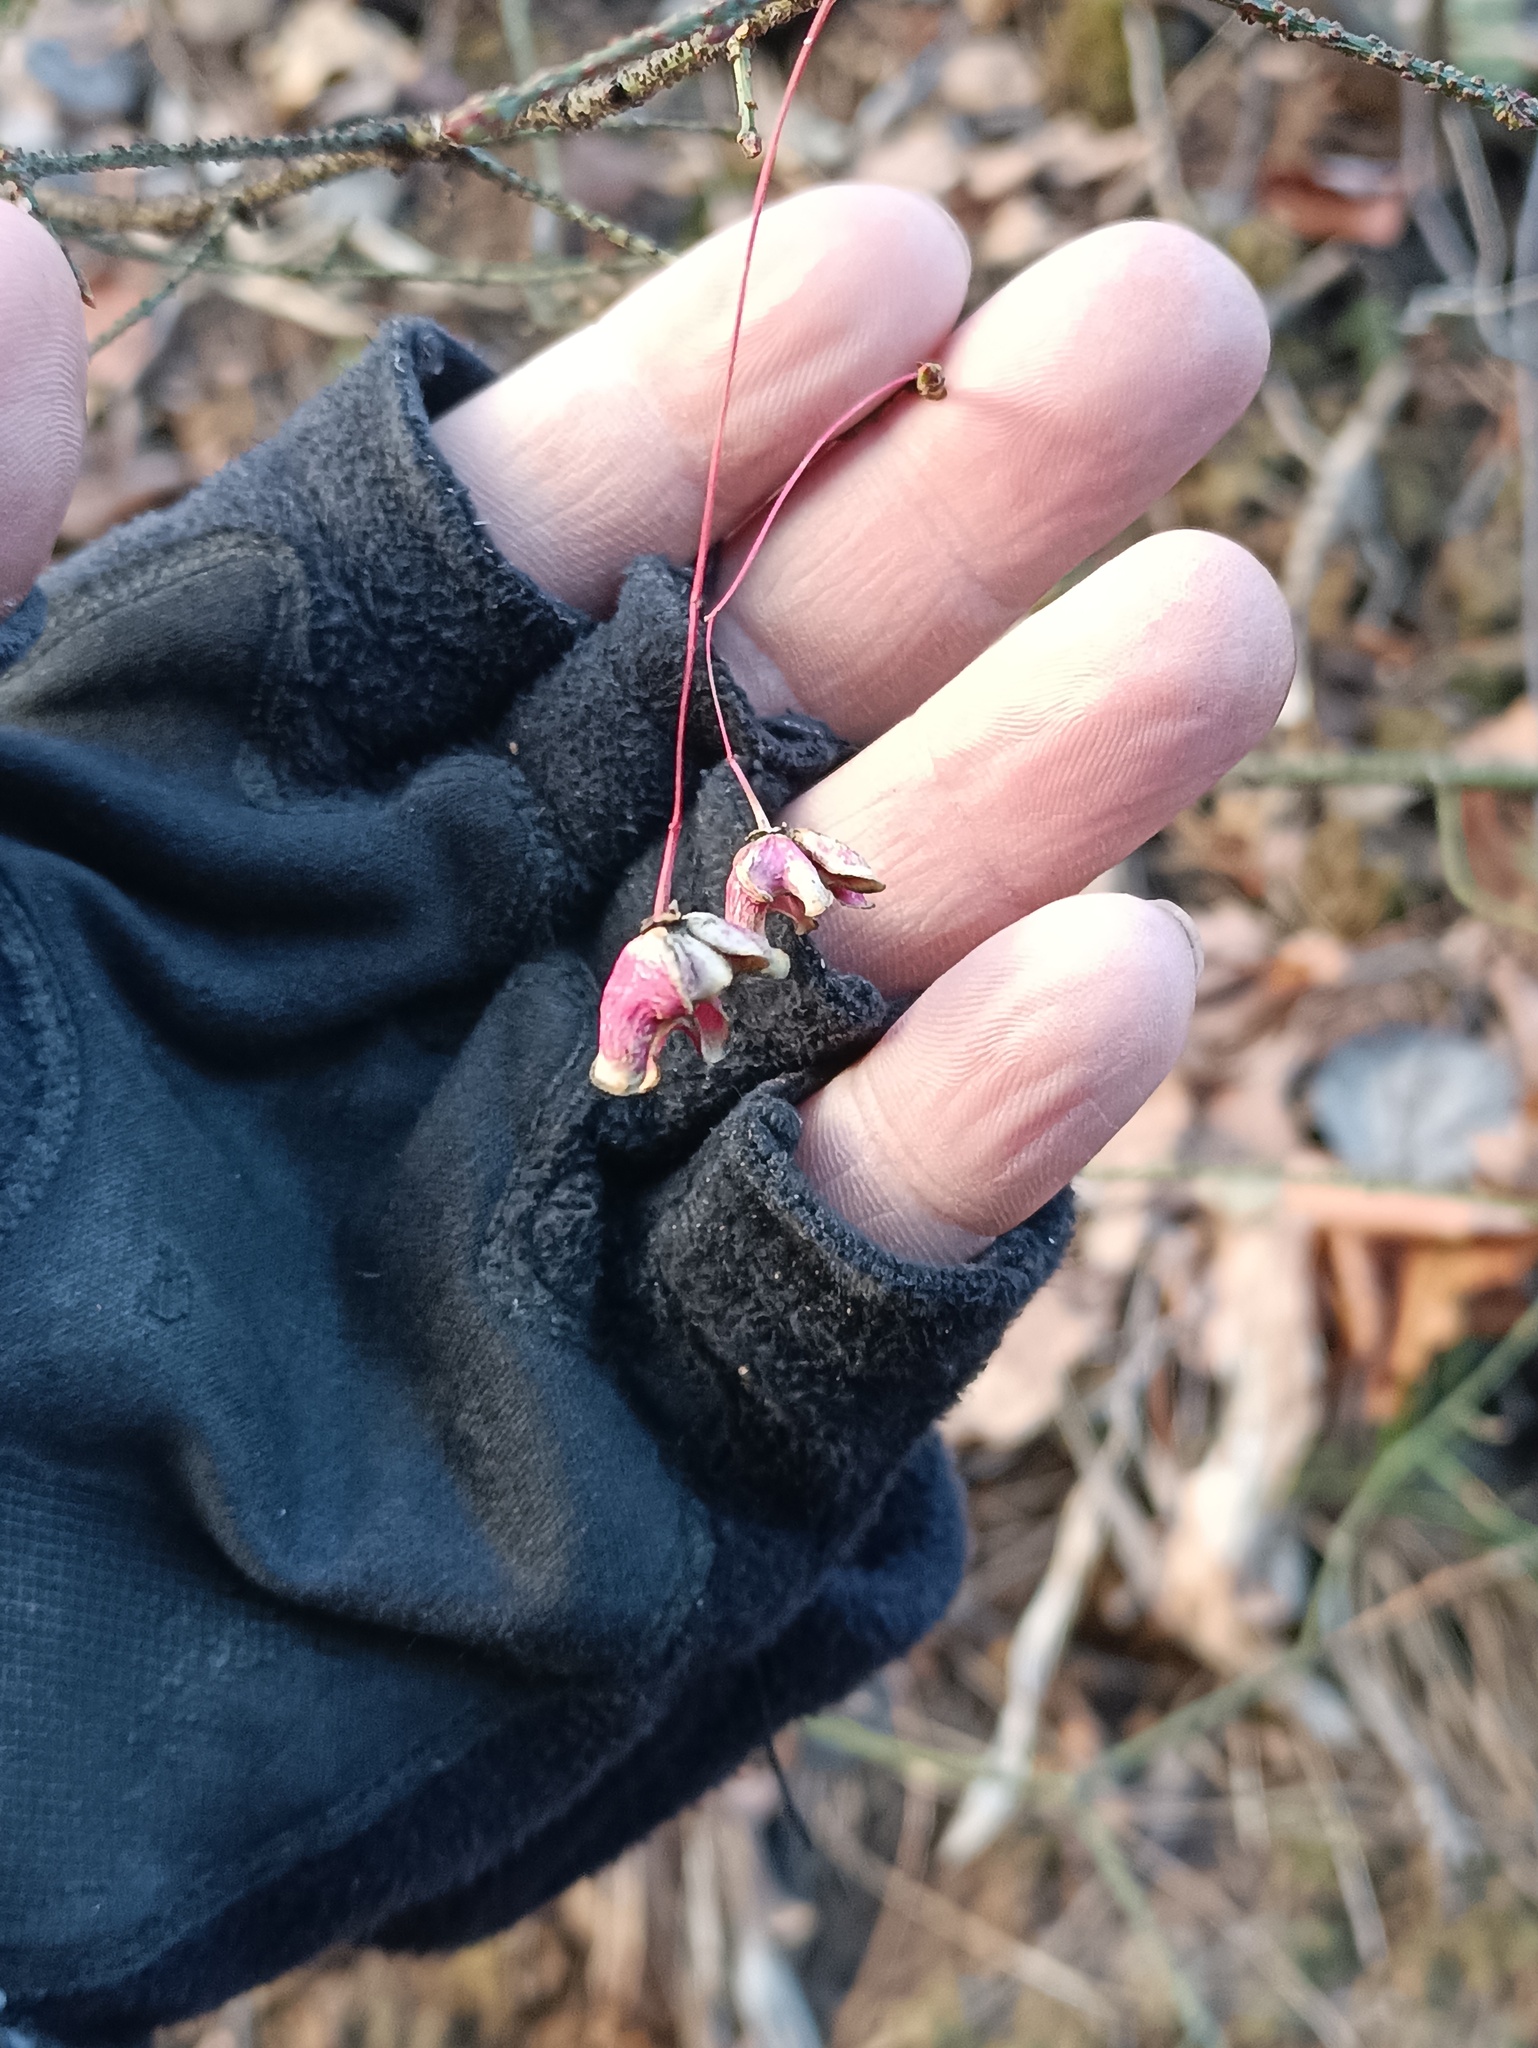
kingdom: Plantae
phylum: Tracheophyta
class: Magnoliopsida
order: Celastrales
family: Celastraceae
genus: Euonymus
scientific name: Euonymus verrucosus
